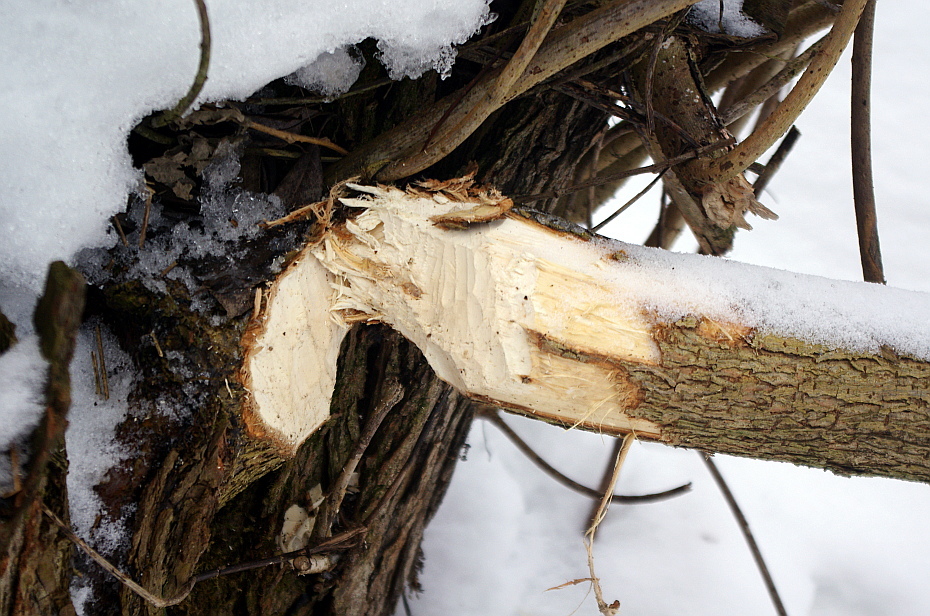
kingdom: Animalia
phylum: Chordata
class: Mammalia
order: Rodentia
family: Castoridae
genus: Castor
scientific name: Castor fiber
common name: Eurasian beaver
